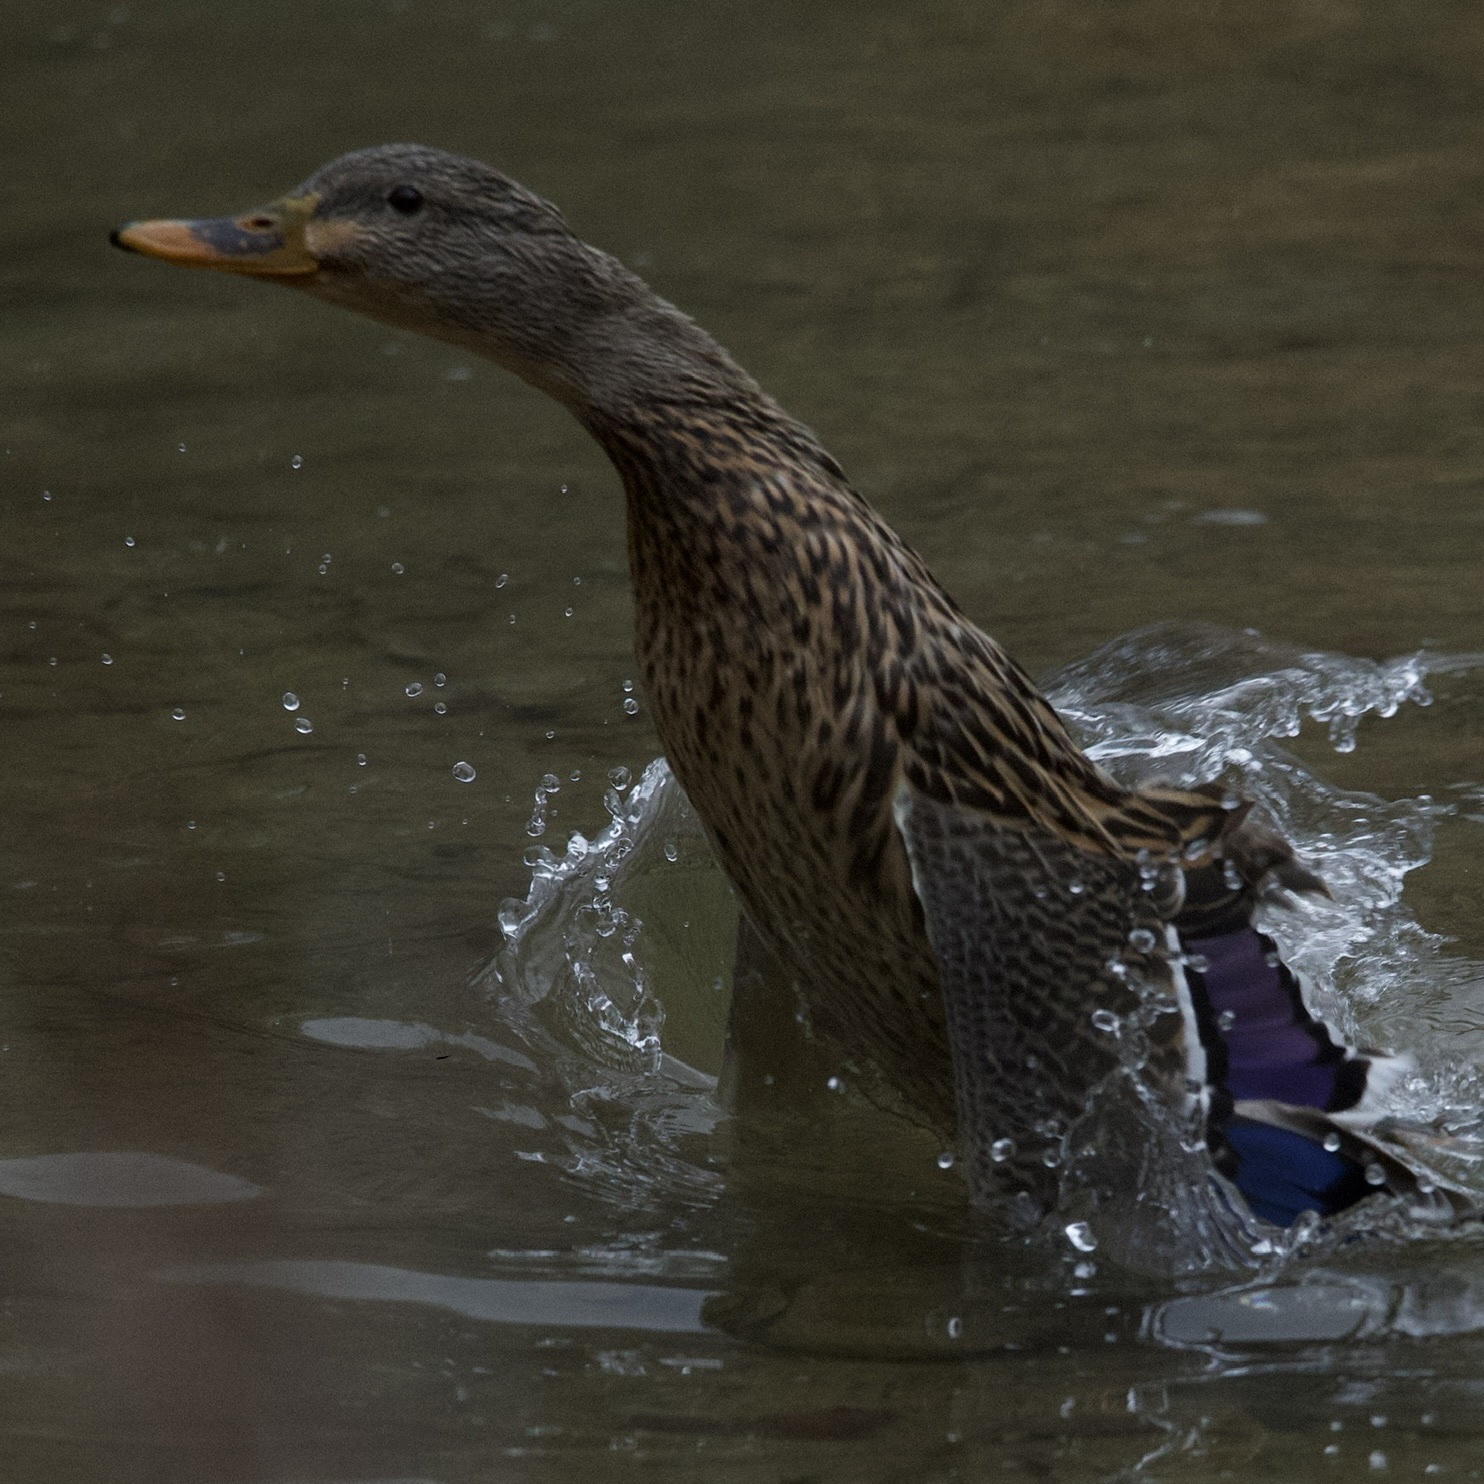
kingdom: Animalia
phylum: Chordata
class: Aves
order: Anseriformes
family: Anatidae
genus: Anas
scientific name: Anas platyrhynchos
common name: Mallard
